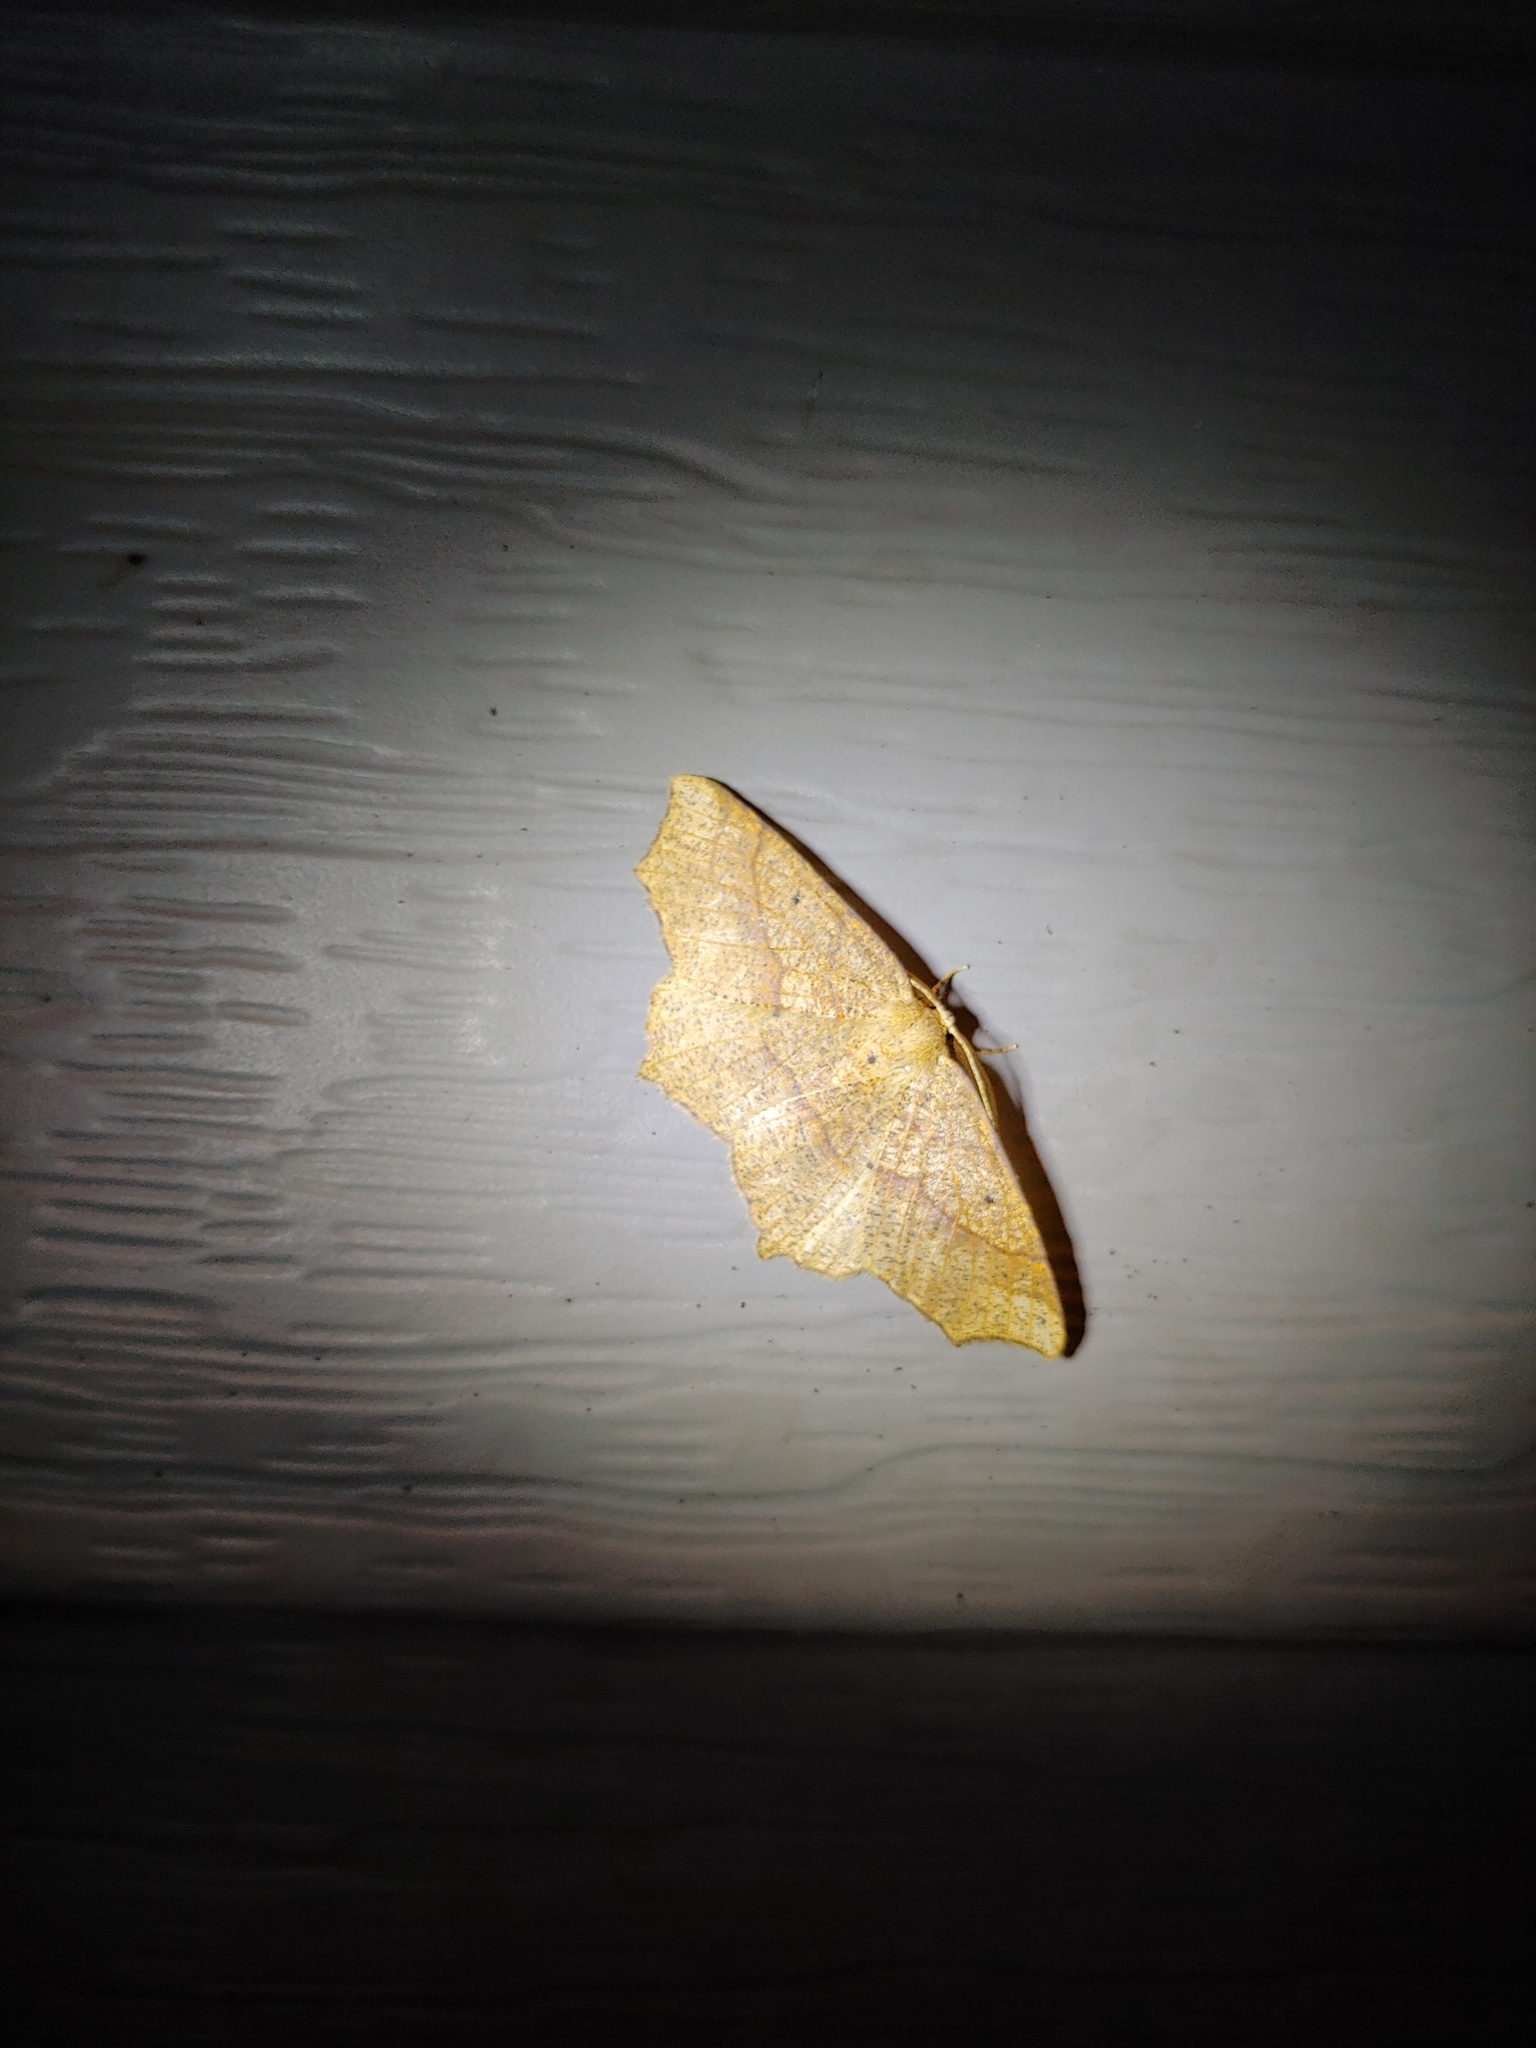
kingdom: Animalia
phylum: Arthropoda
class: Insecta
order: Lepidoptera
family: Geometridae
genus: Besma
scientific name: Besma quercivoraria
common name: Oak besma
